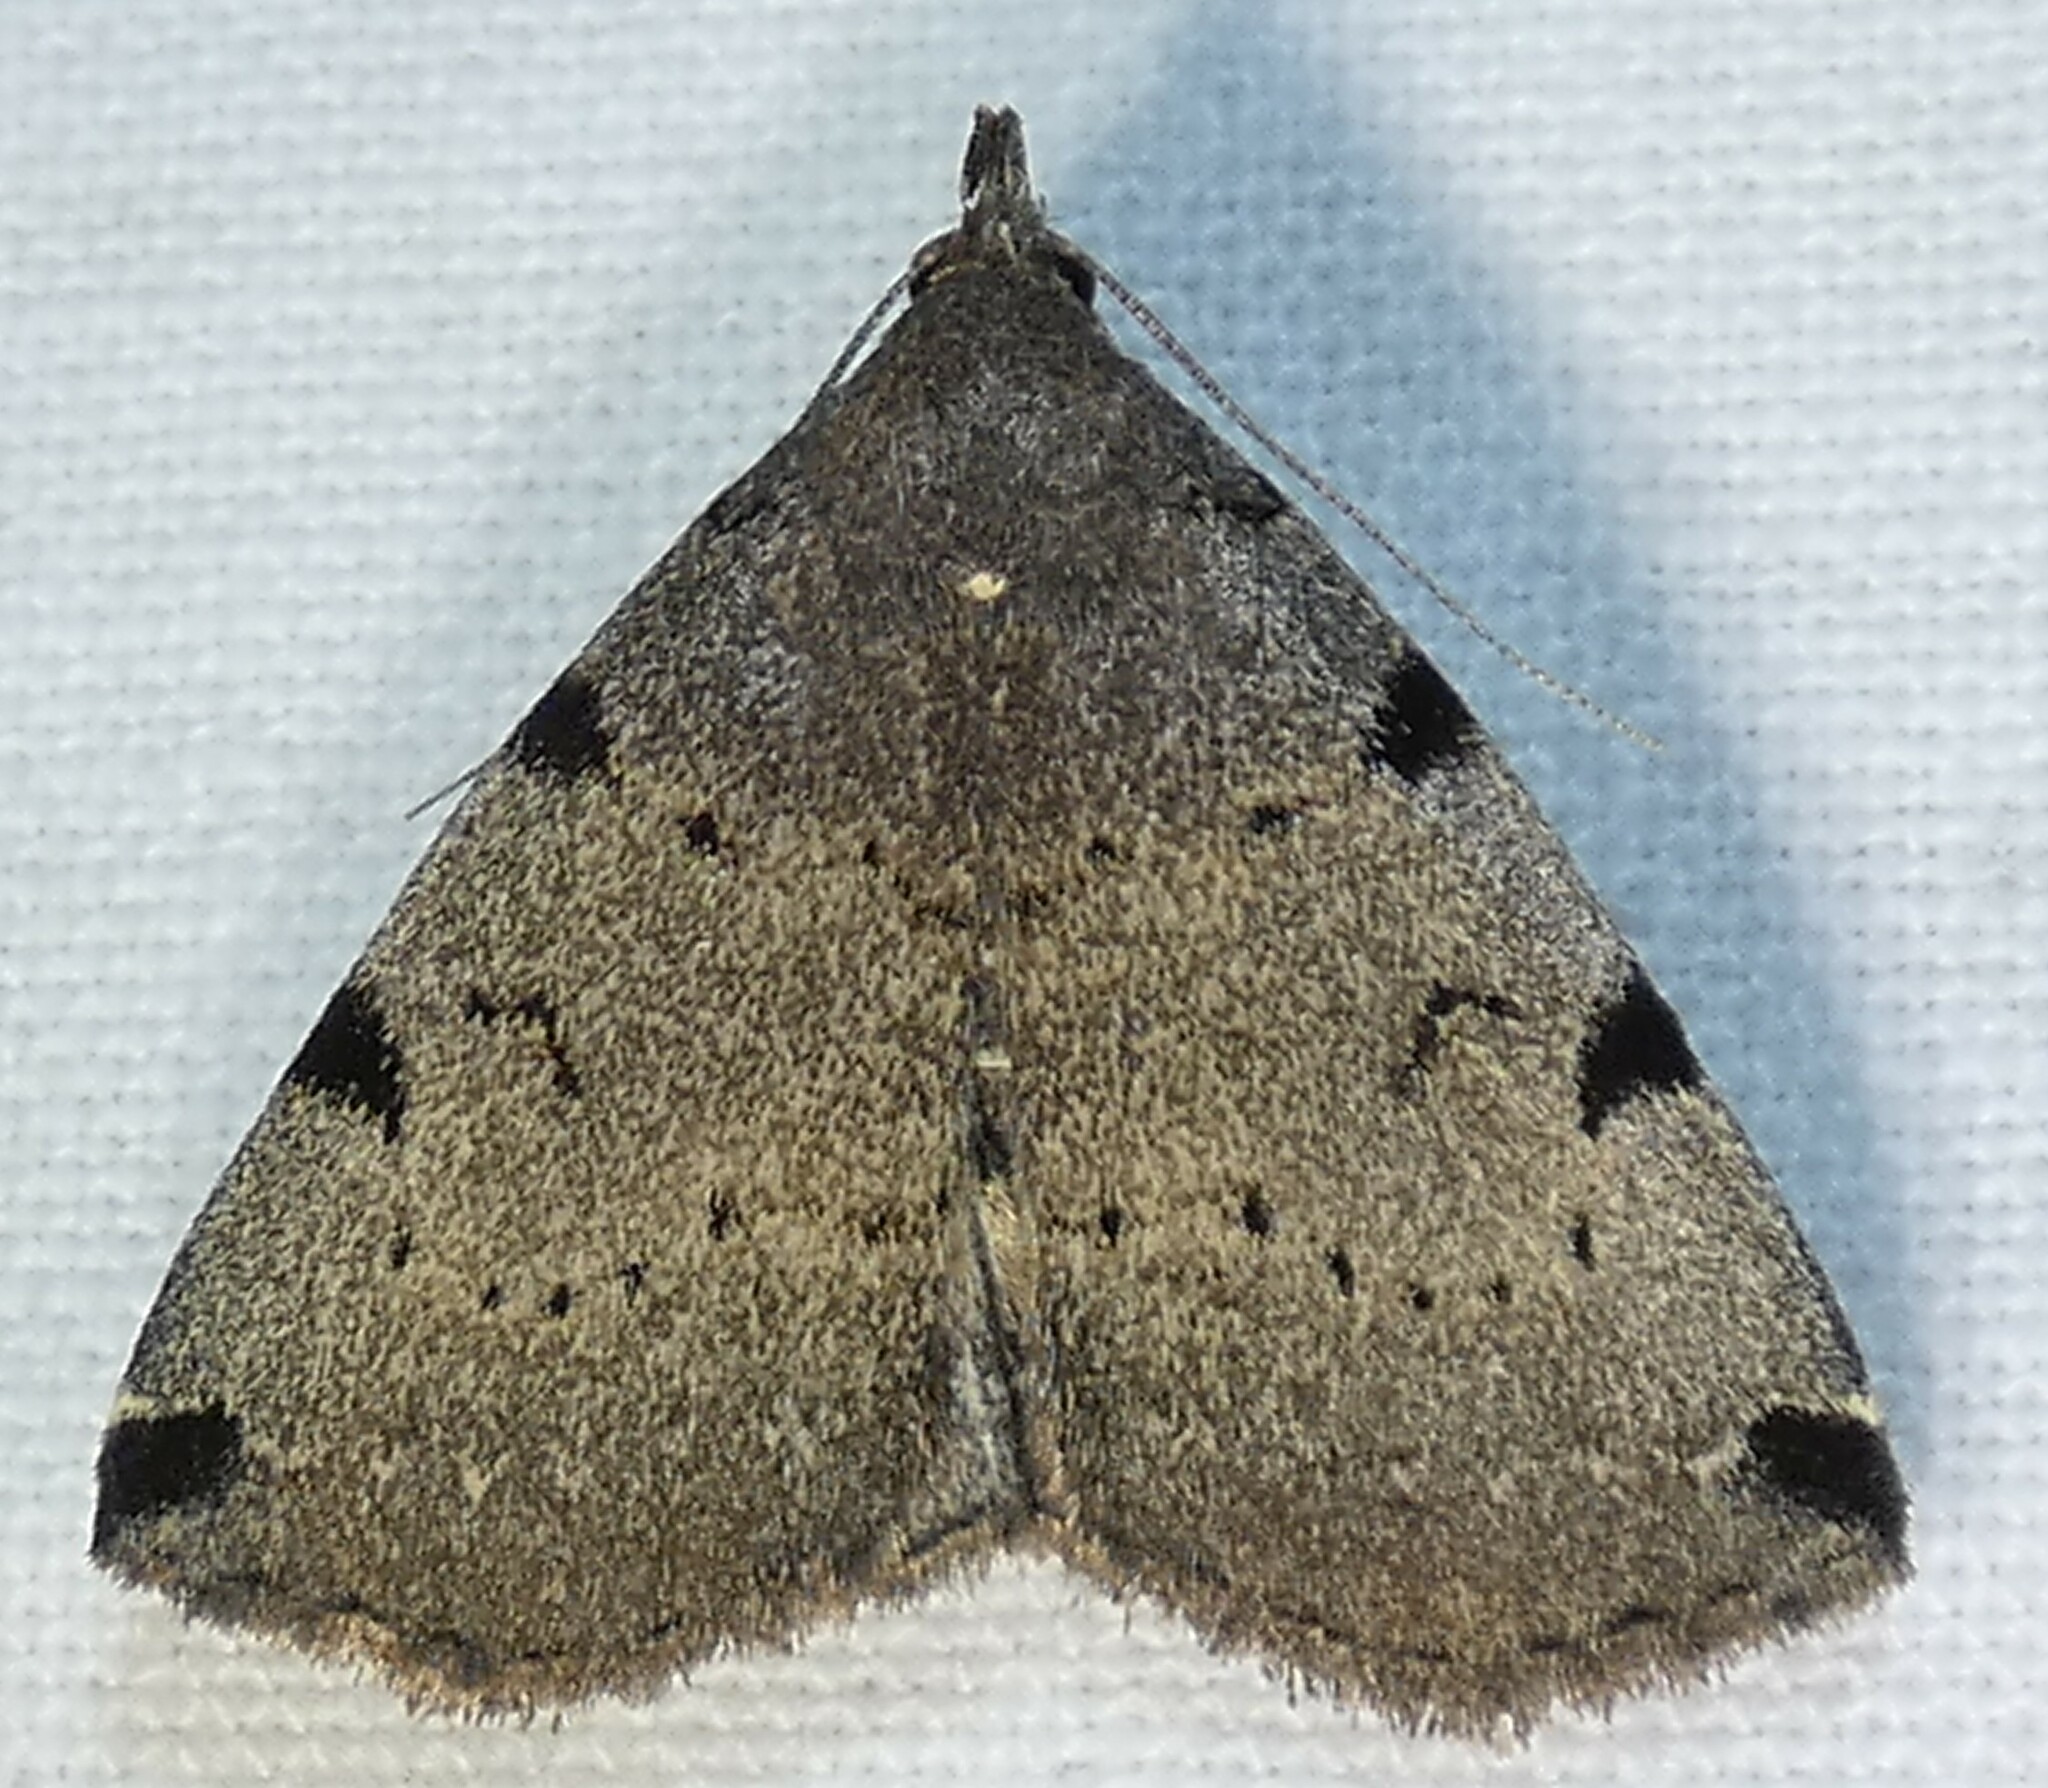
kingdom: Animalia
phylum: Arthropoda
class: Insecta
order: Lepidoptera
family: Erebidae
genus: Zanclognatha
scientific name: Zanclognatha lituralis
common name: Lettered fan-foot
